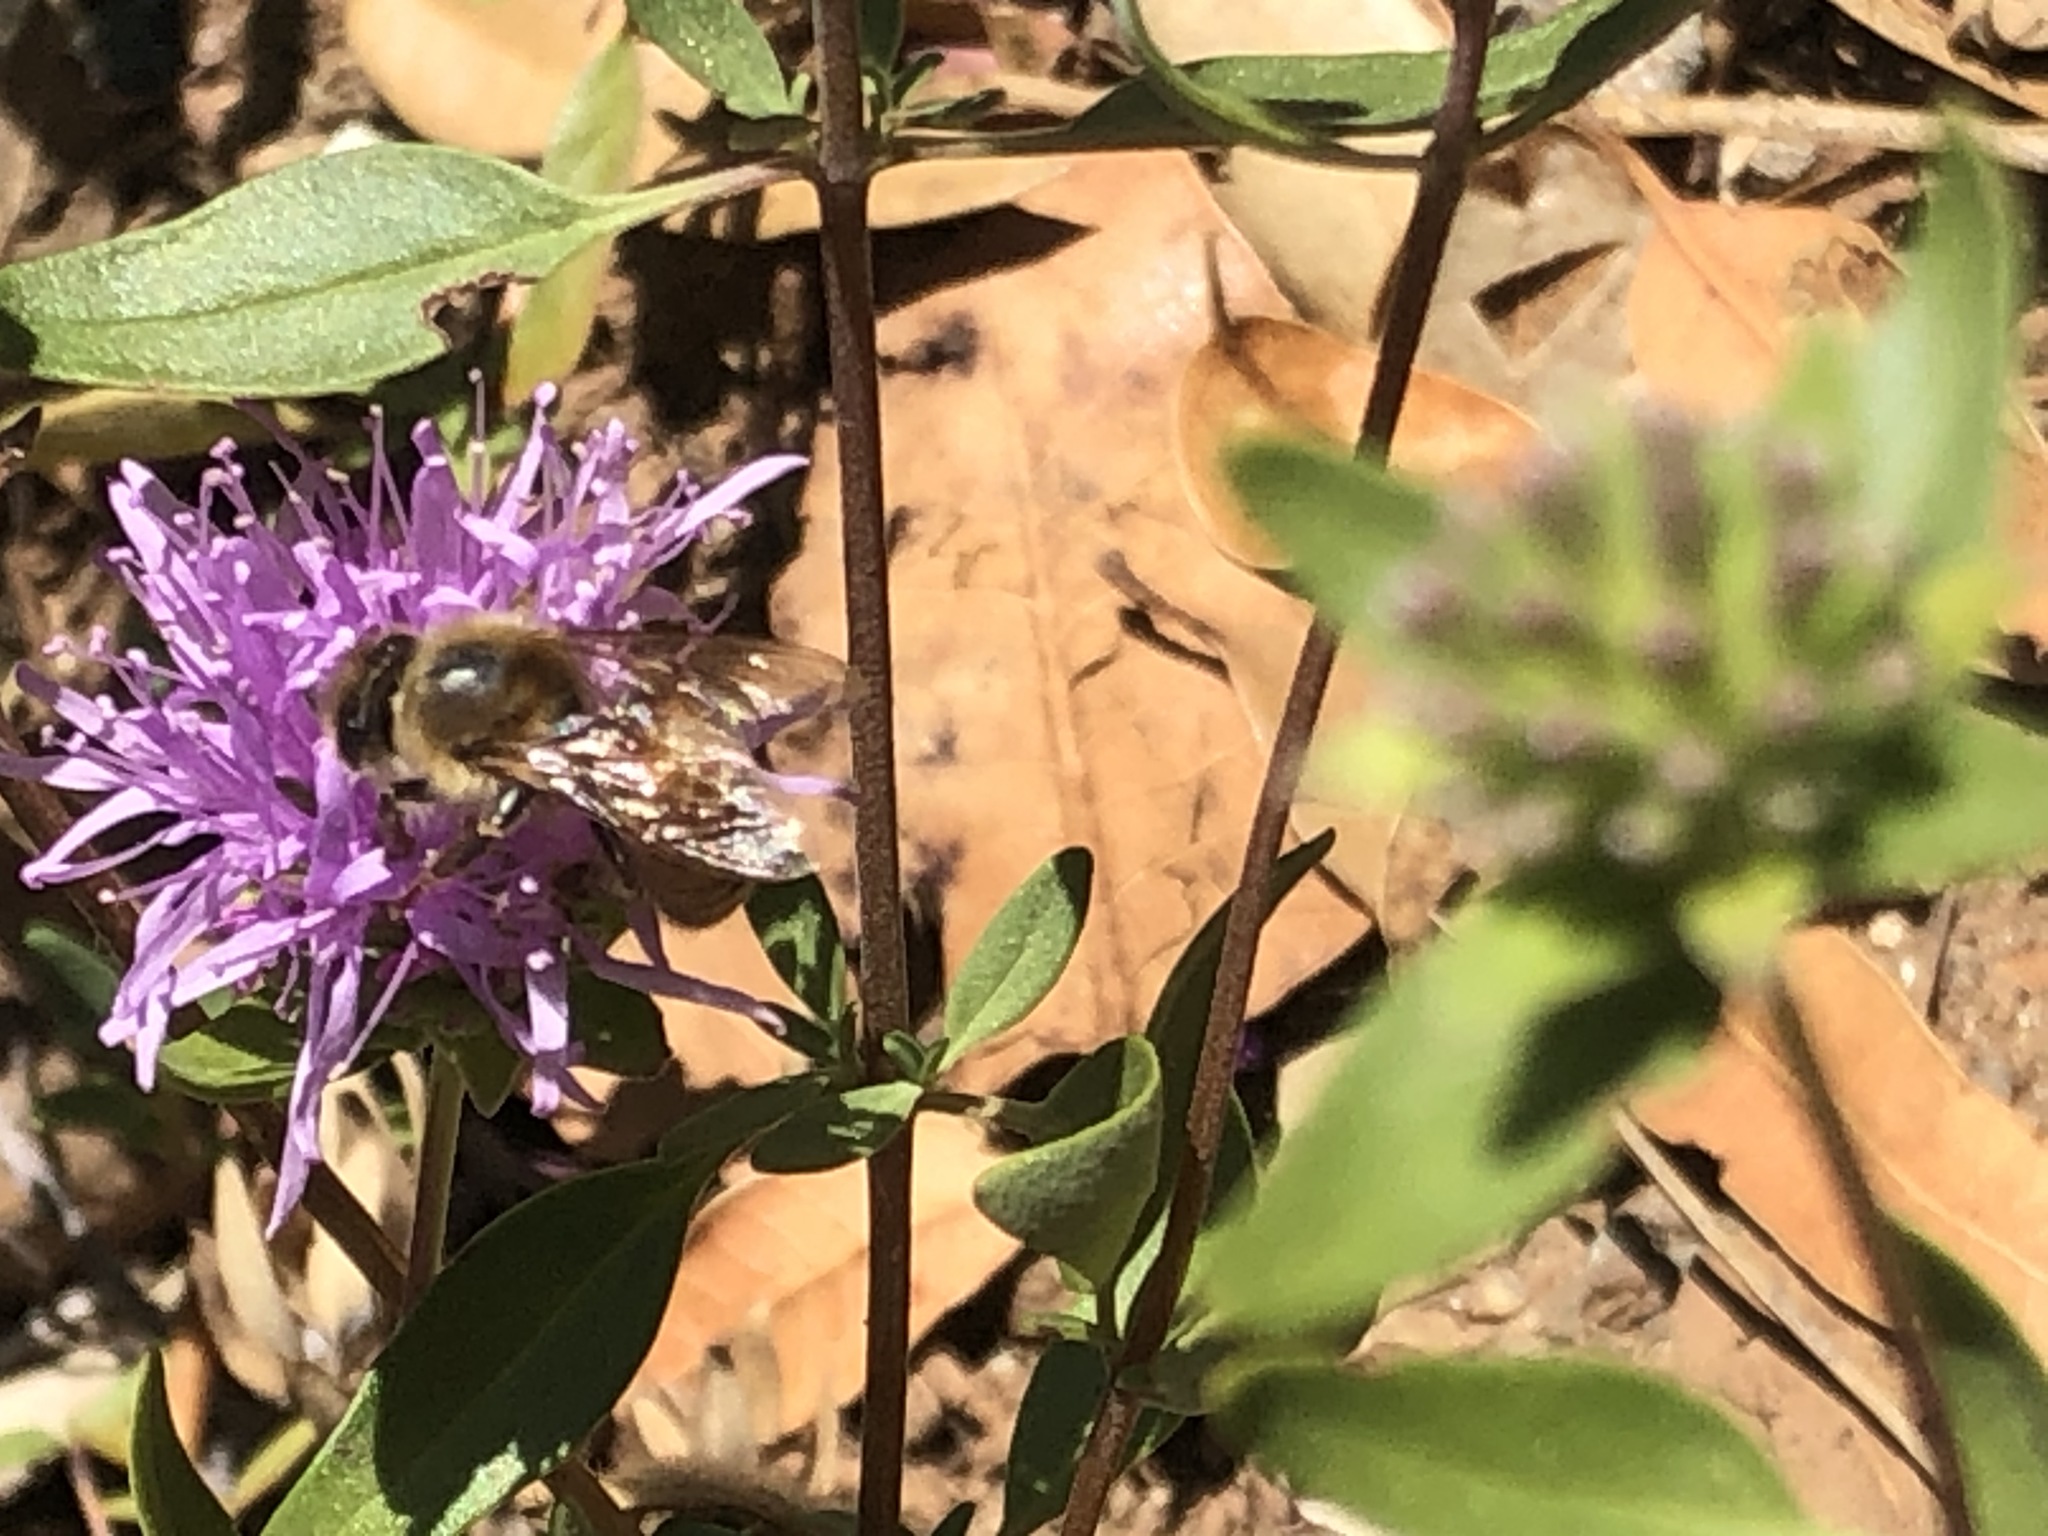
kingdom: Animalia
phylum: Arthropoda
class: Insecta
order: Hymenoptera
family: Apidae
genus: Apis
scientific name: Apis mellifera
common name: Honey bee
